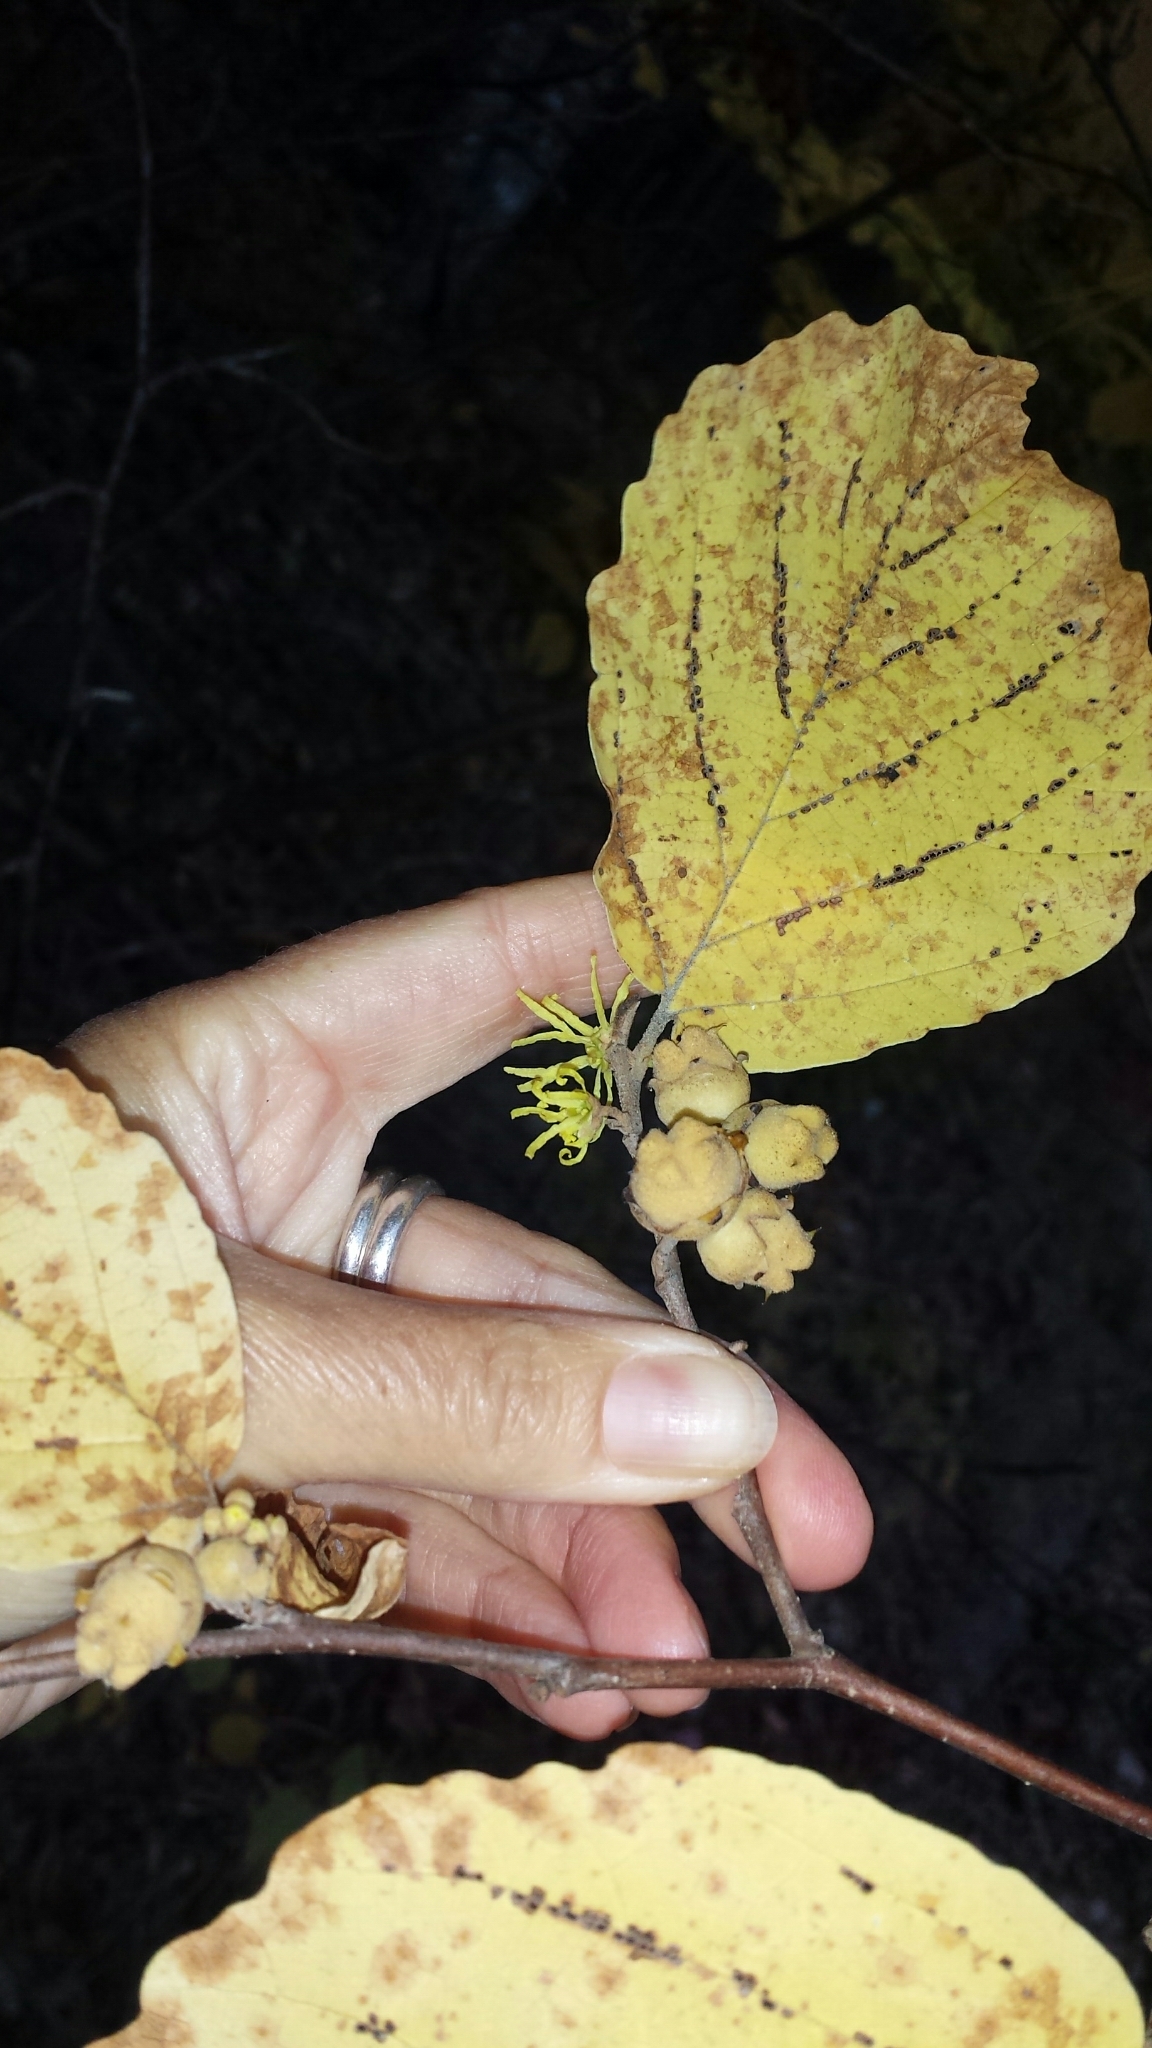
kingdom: Plantae
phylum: Tracheophyta
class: Magnoliopsida
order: Saxifragales
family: Hamamelidaceae
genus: Hamamelis
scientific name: Hamamelis virginiana
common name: Witch-hazel
